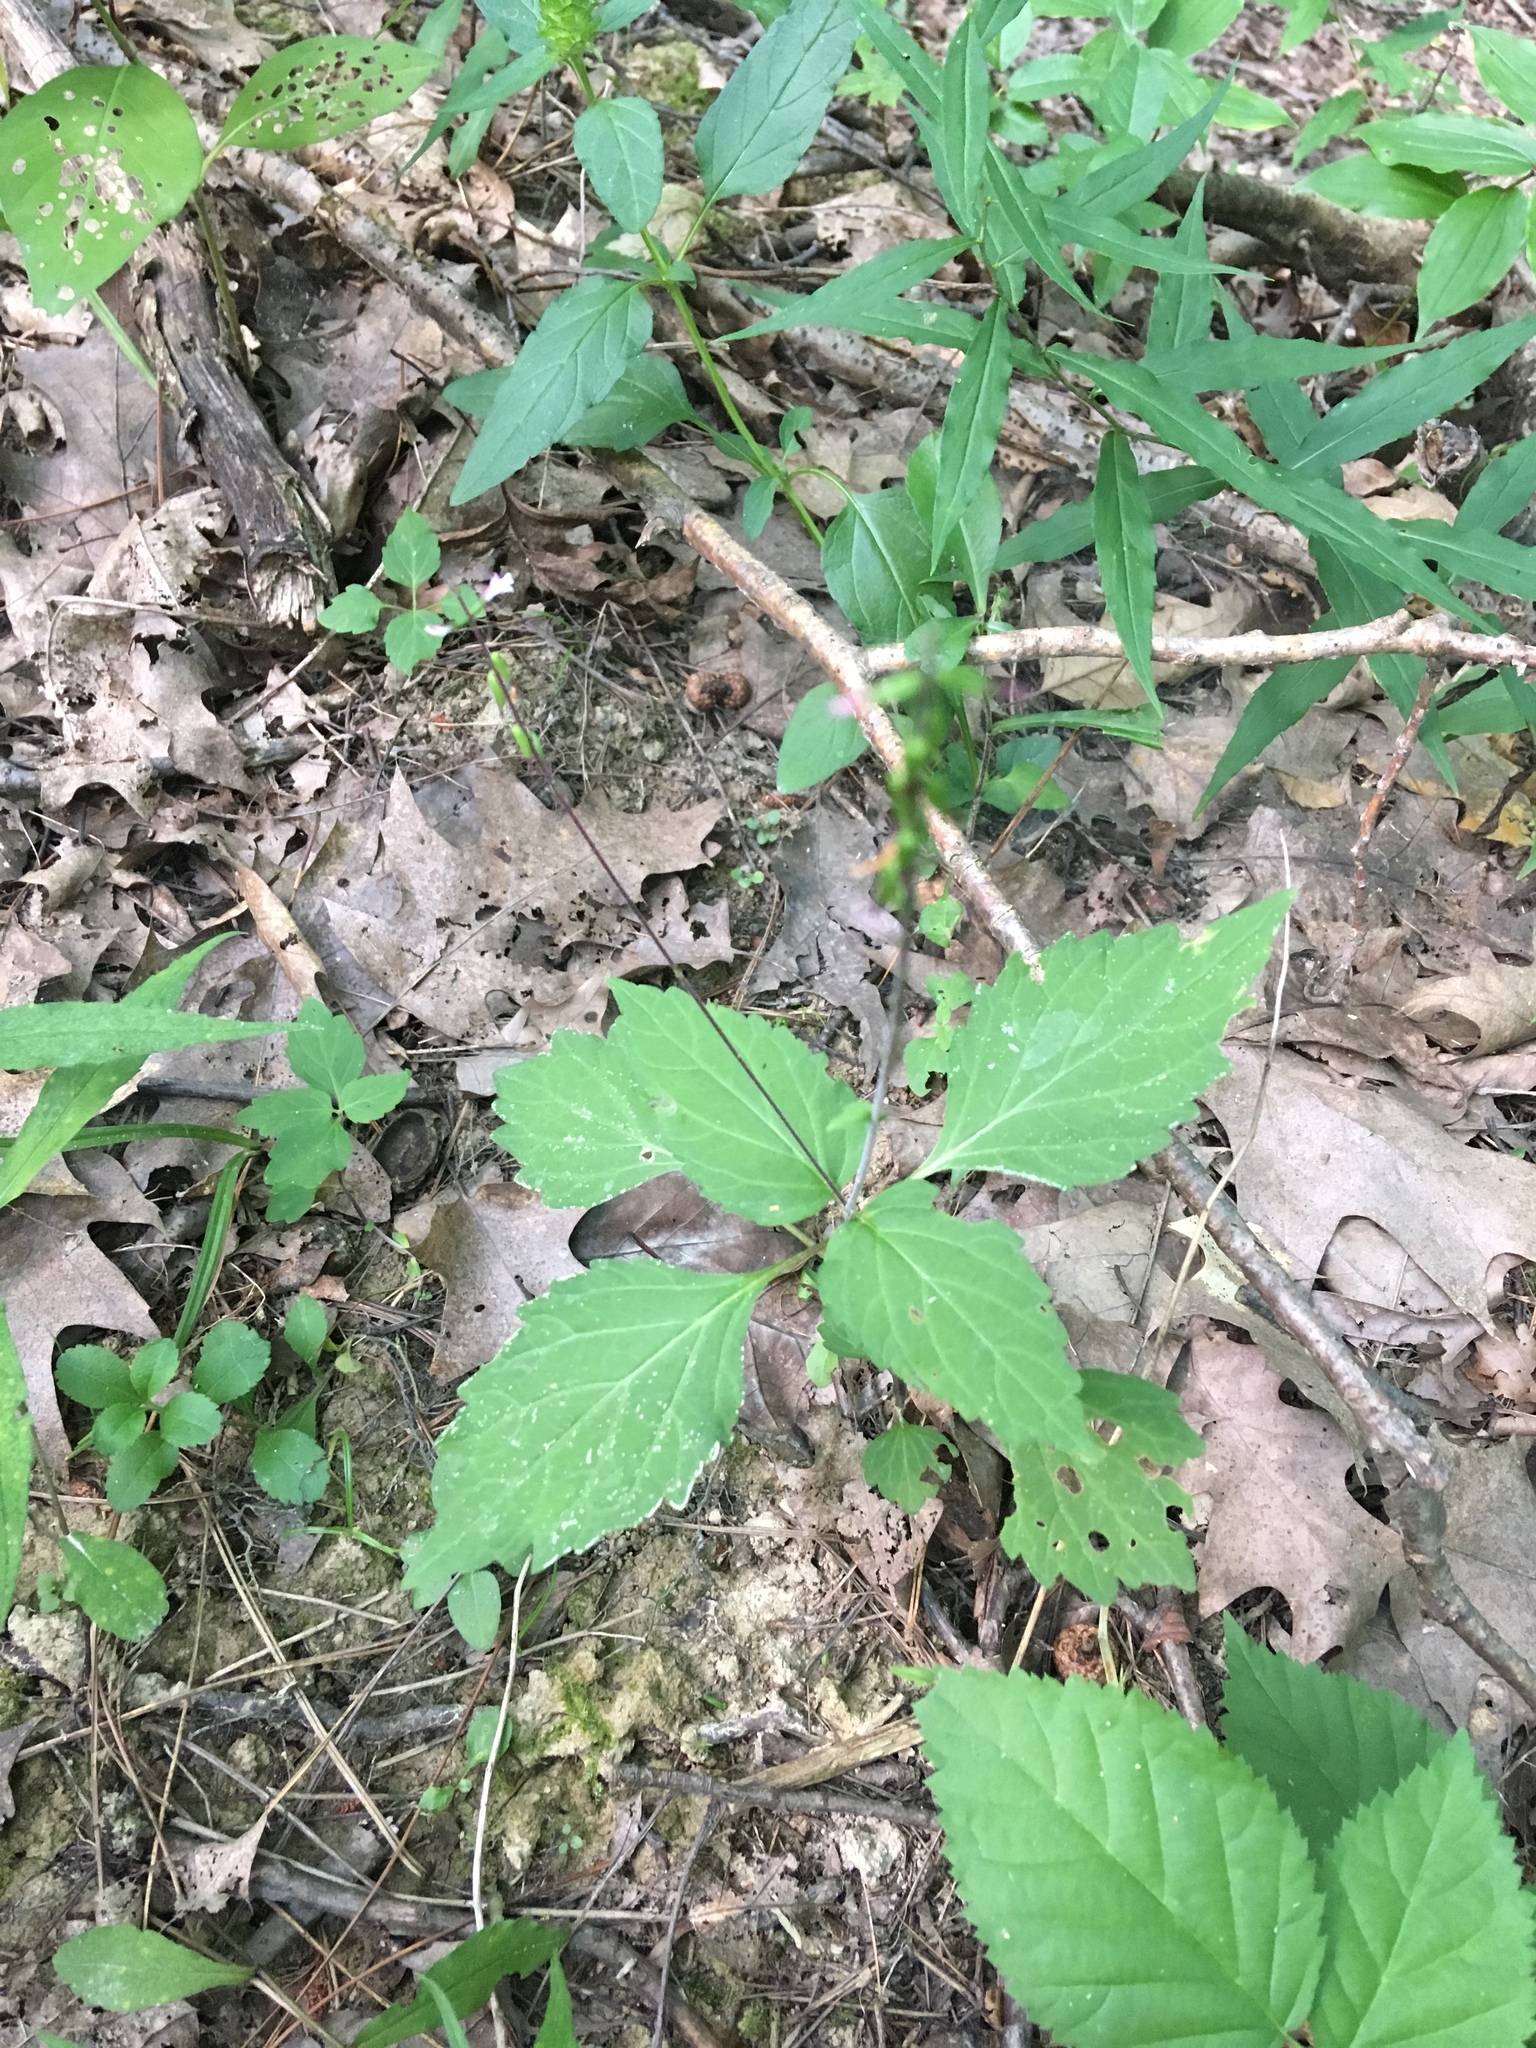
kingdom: Plantae
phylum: Tracheophyta
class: Magnoliopsida
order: Lamiales
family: Phrymaceae
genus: Phryma
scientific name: Phryma leptostachya
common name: American lopseed
